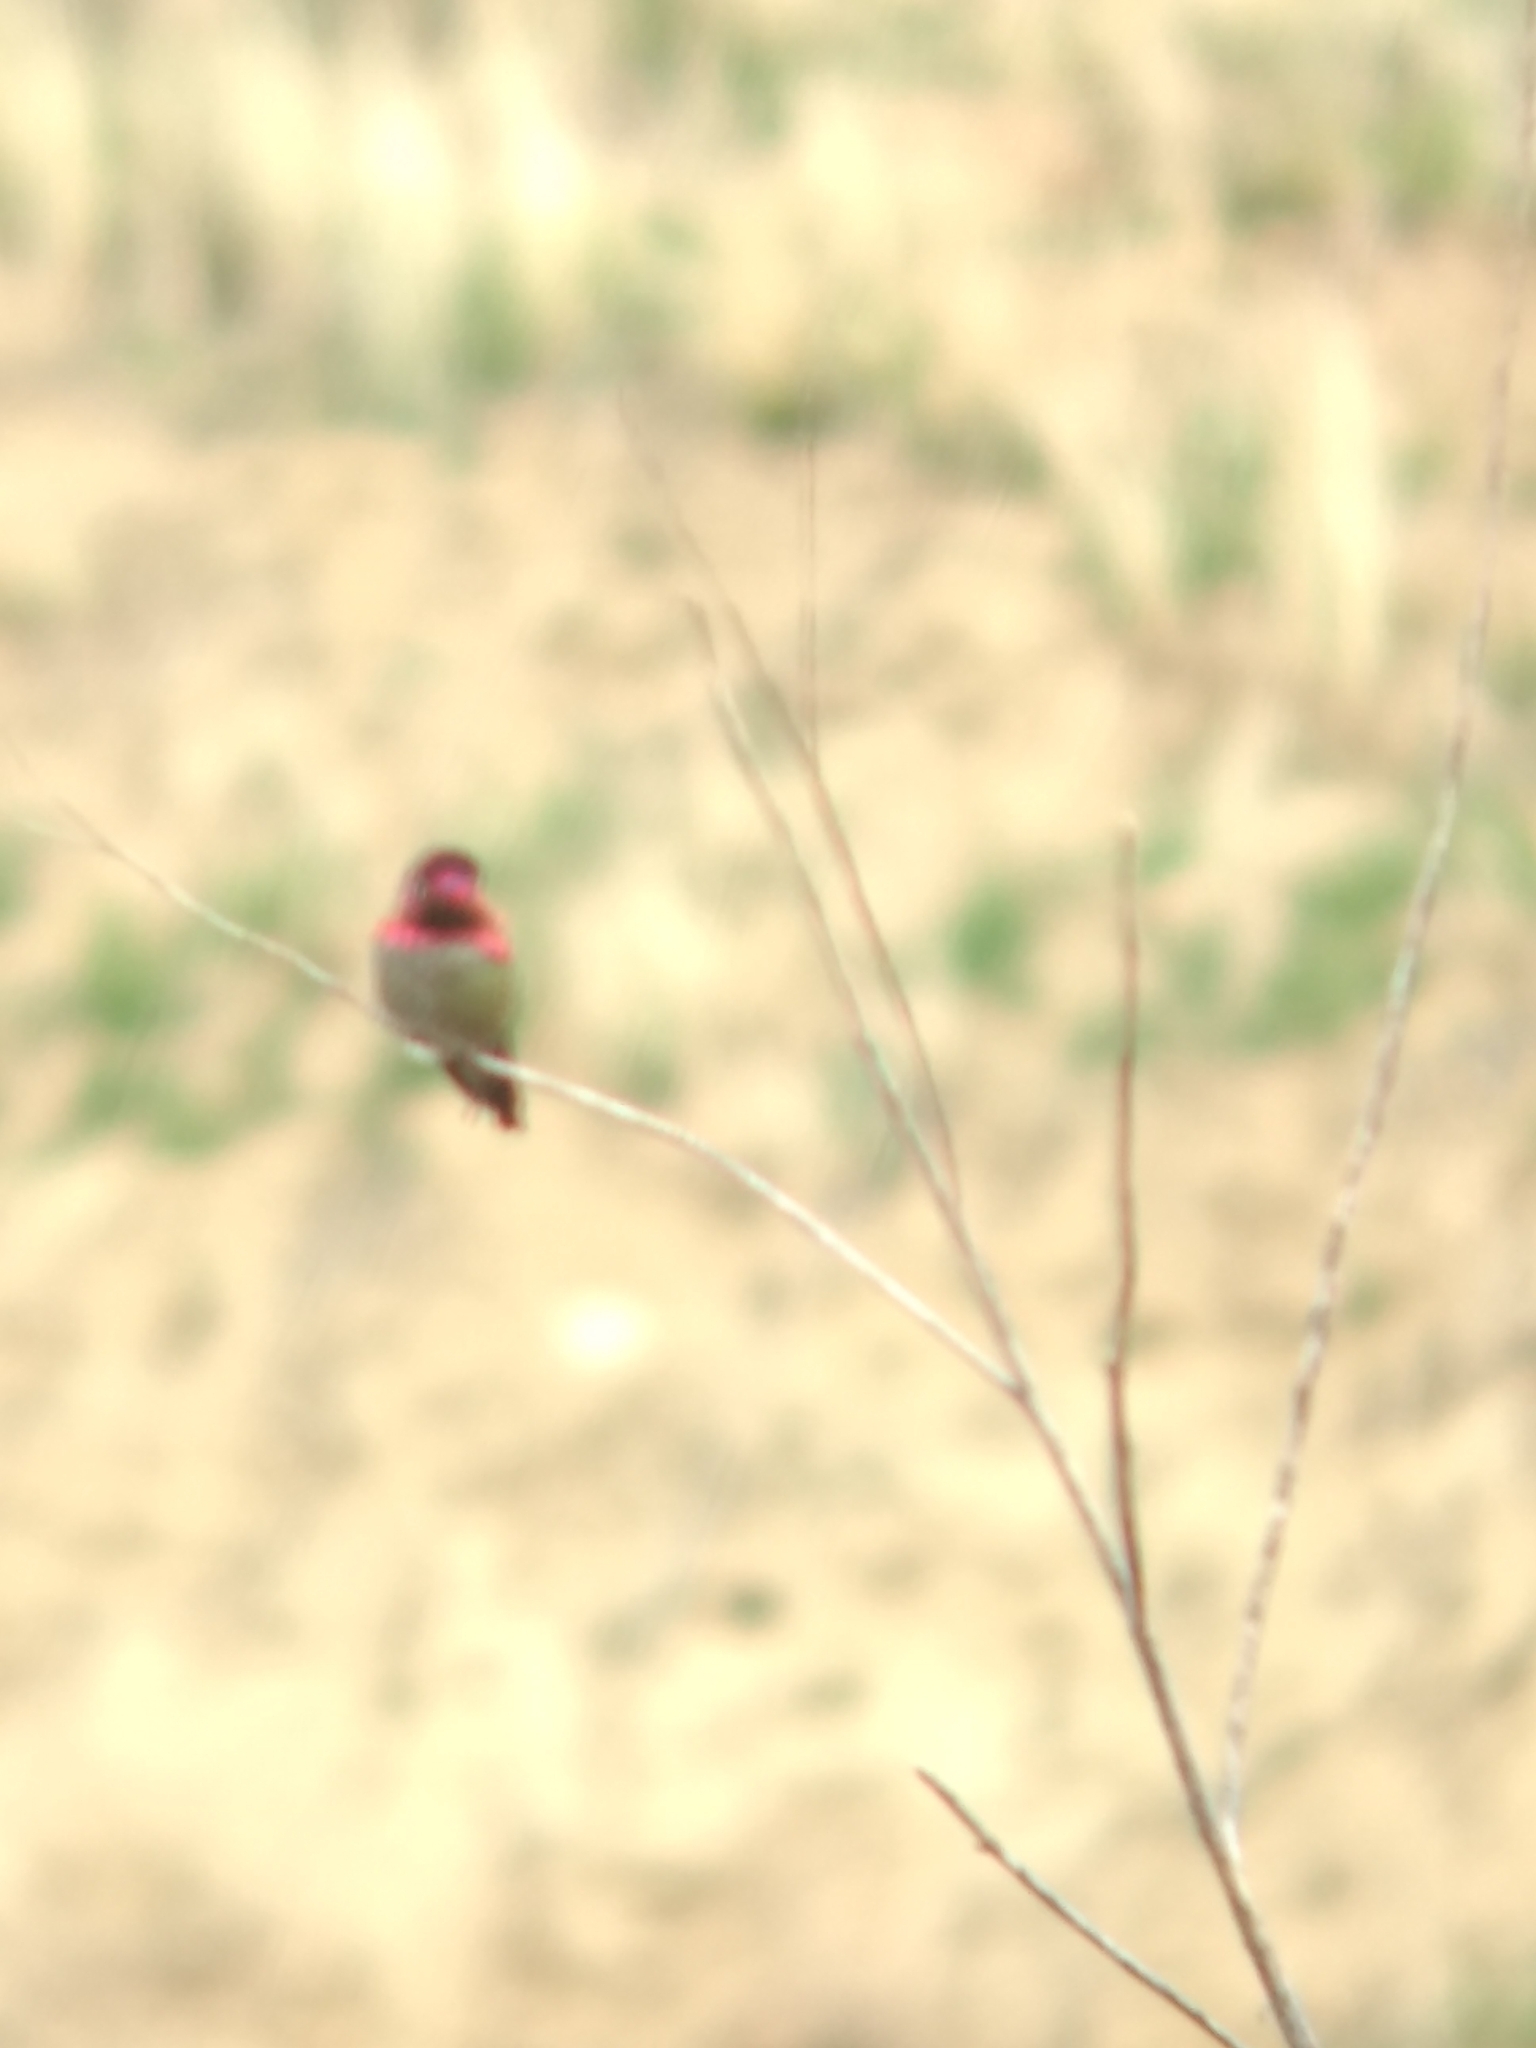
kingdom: Animalia
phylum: Chordata
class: Aves
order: Apodiformes
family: Trochilidae
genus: Calypte
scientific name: Calypte anna
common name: Anna's hummingbird
